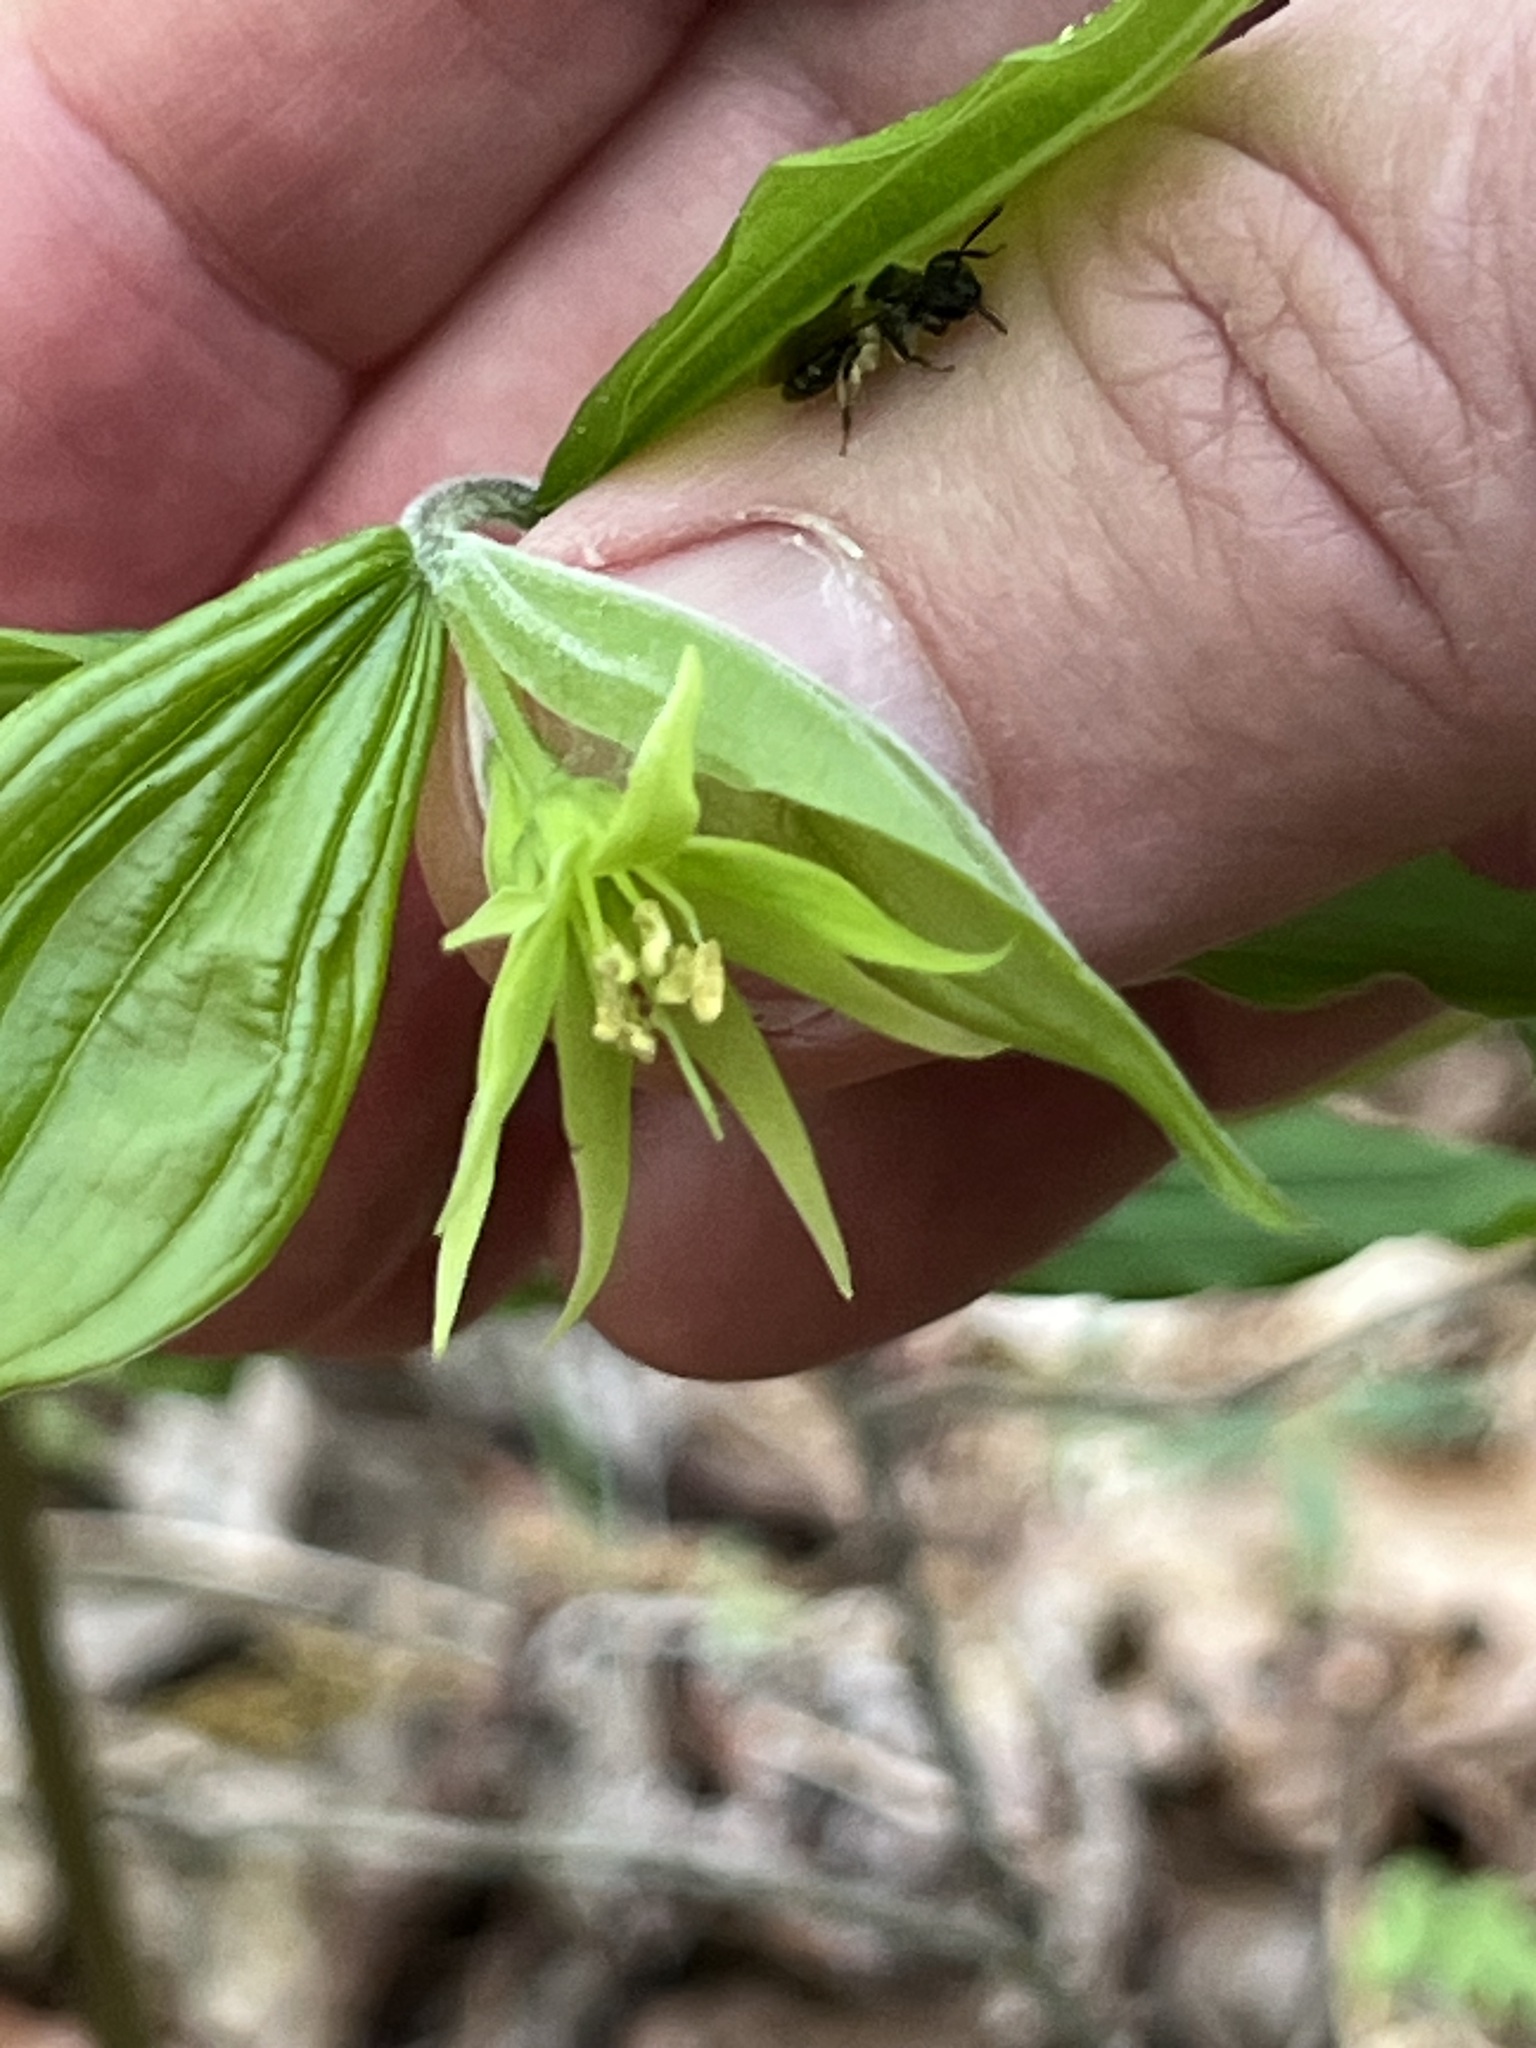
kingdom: Plantae
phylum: Tracheophyta
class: Liliopsida
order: Liliales
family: Liliaceae
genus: Prosartes
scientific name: Prosartes lanuginosa
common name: Hairy mandarin
